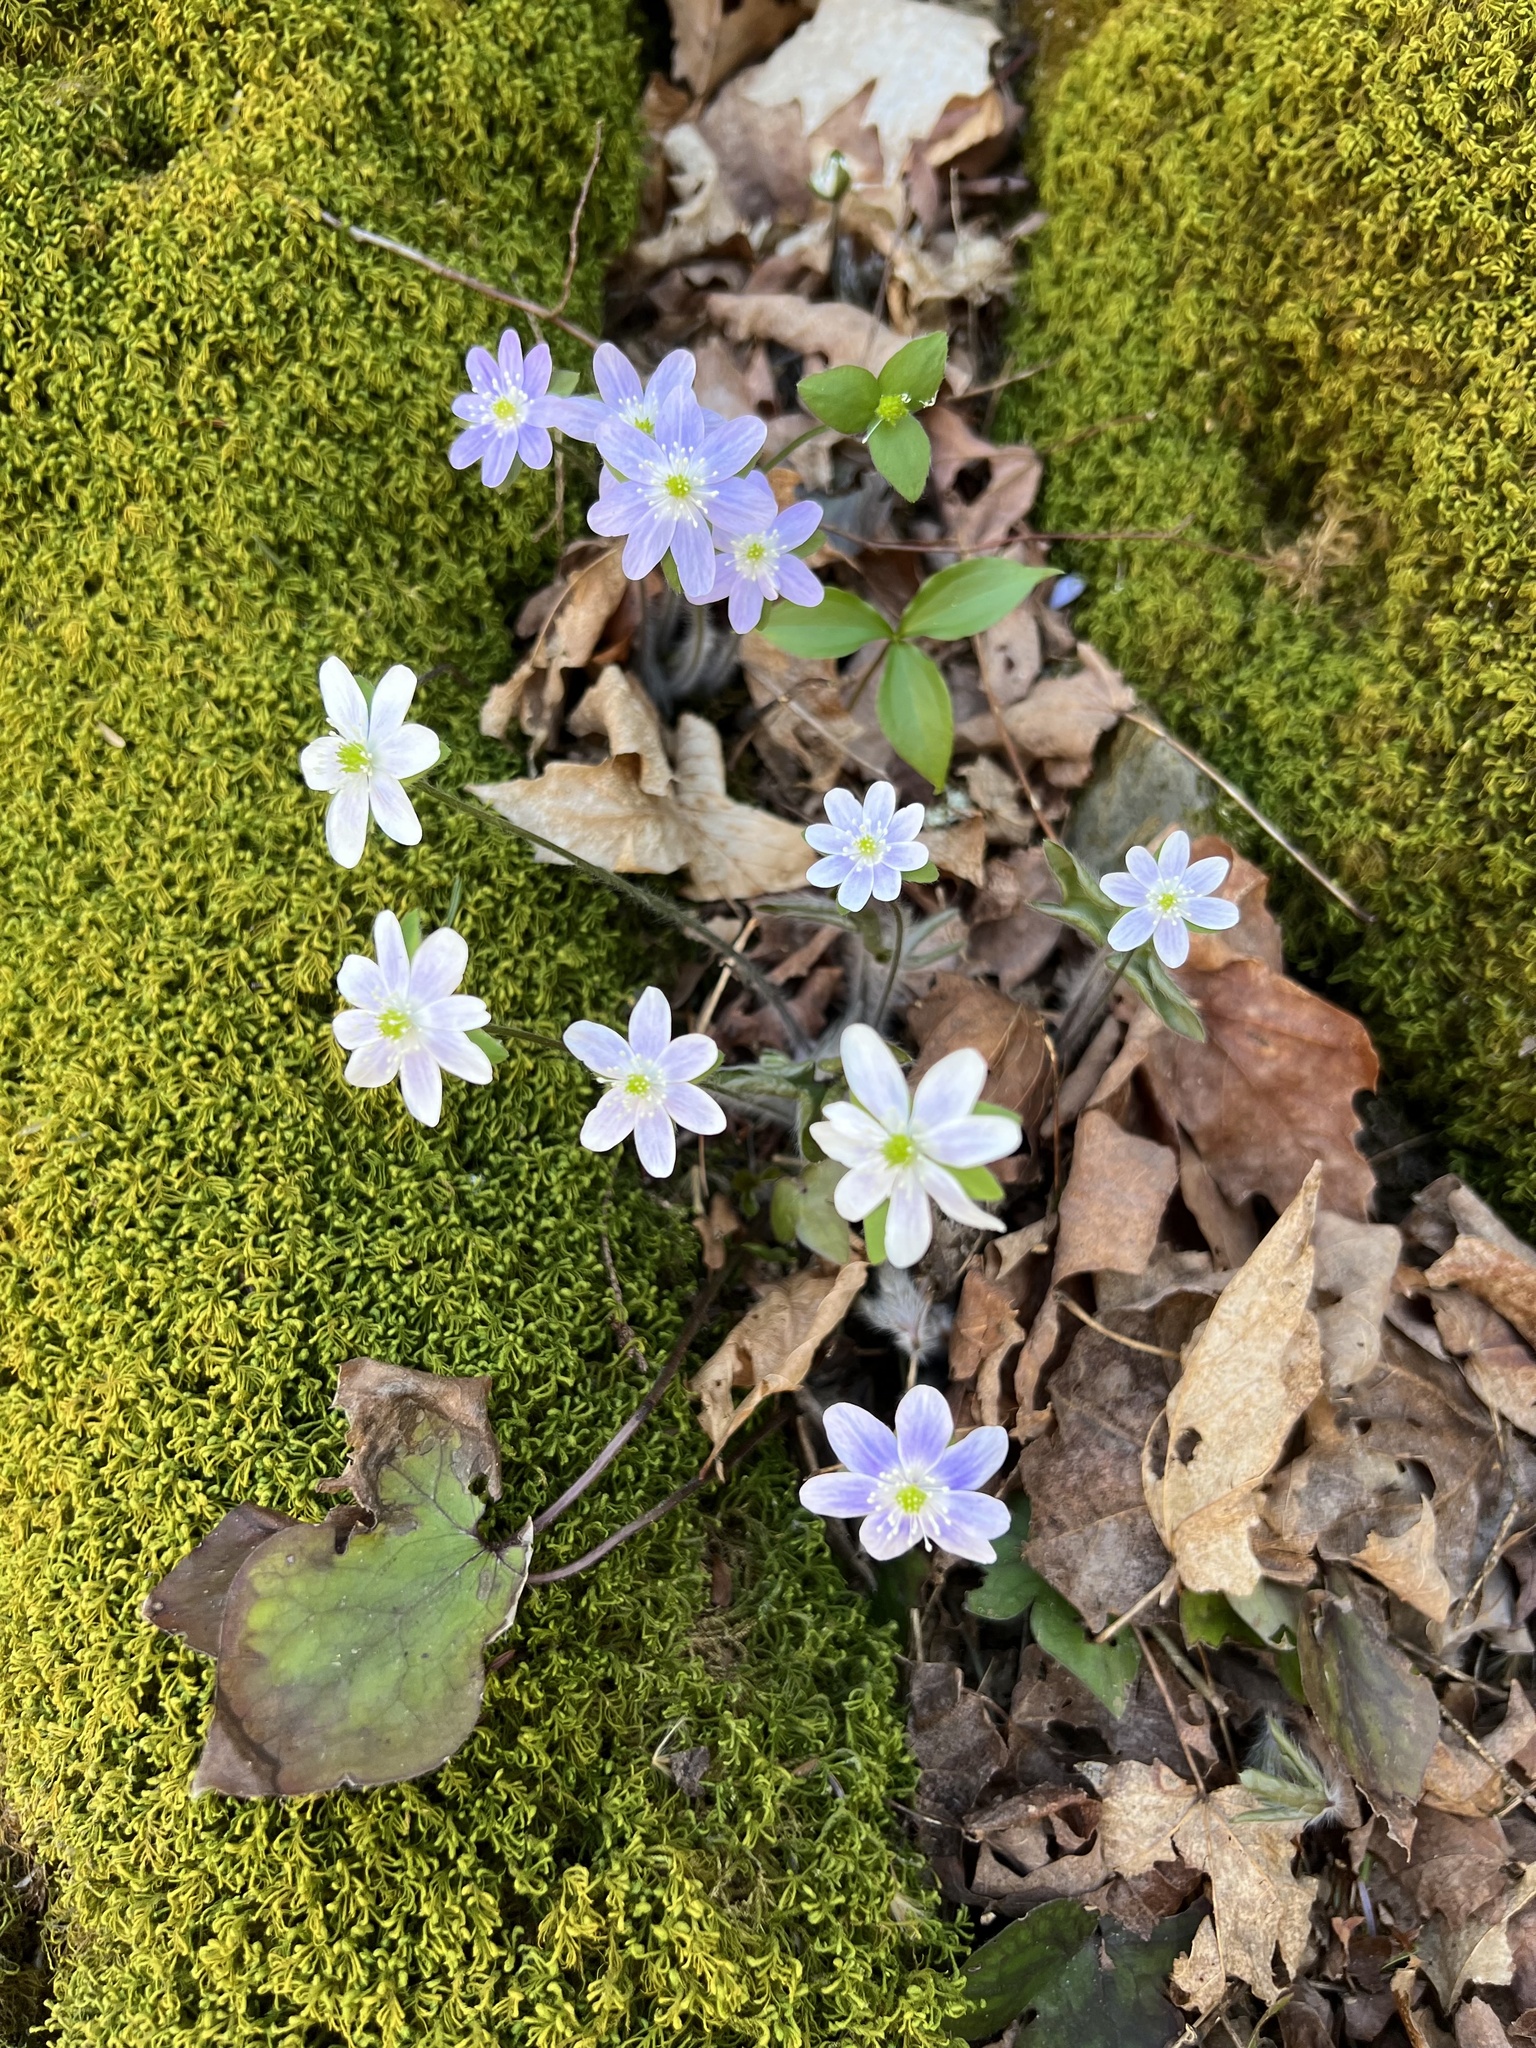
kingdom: Plantae
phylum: Tracheophyta
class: Magnoliopsida
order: Ranunculales
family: Ranunculaceae
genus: Hepatica
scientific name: Hepatica acutiloba
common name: Sharp-lobed hepatica
